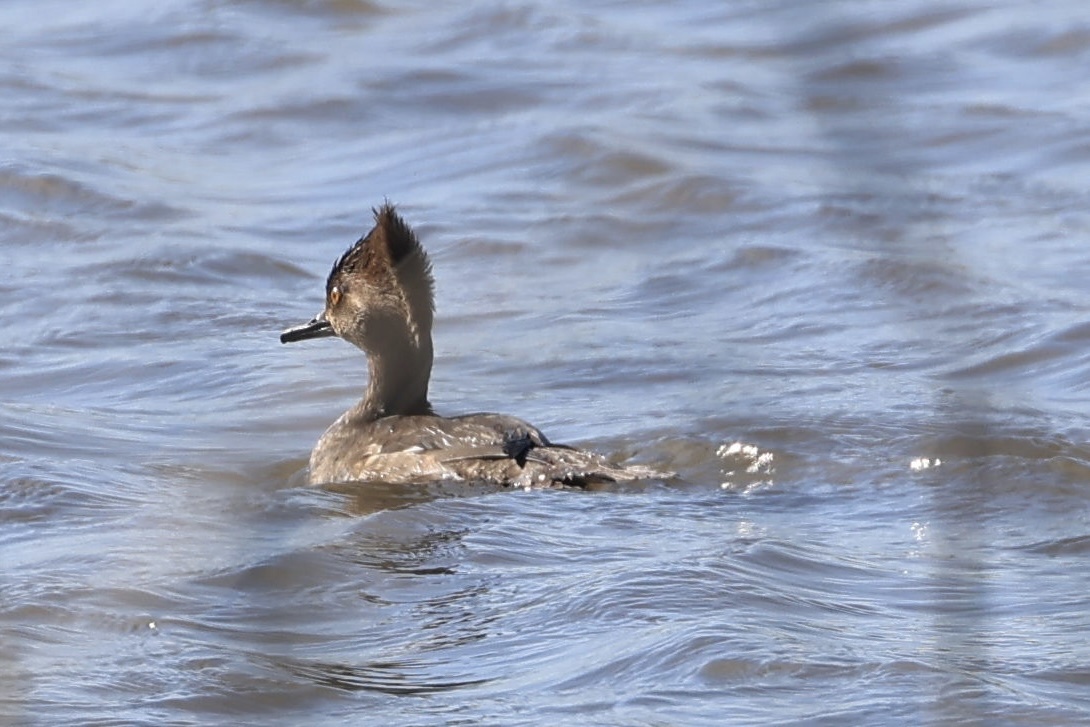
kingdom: Animalia
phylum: Chordata
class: Aves
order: Anseriformes
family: Anatidae
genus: Lophodytes
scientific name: Lophodytes cucullatus
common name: Hooded merganser
